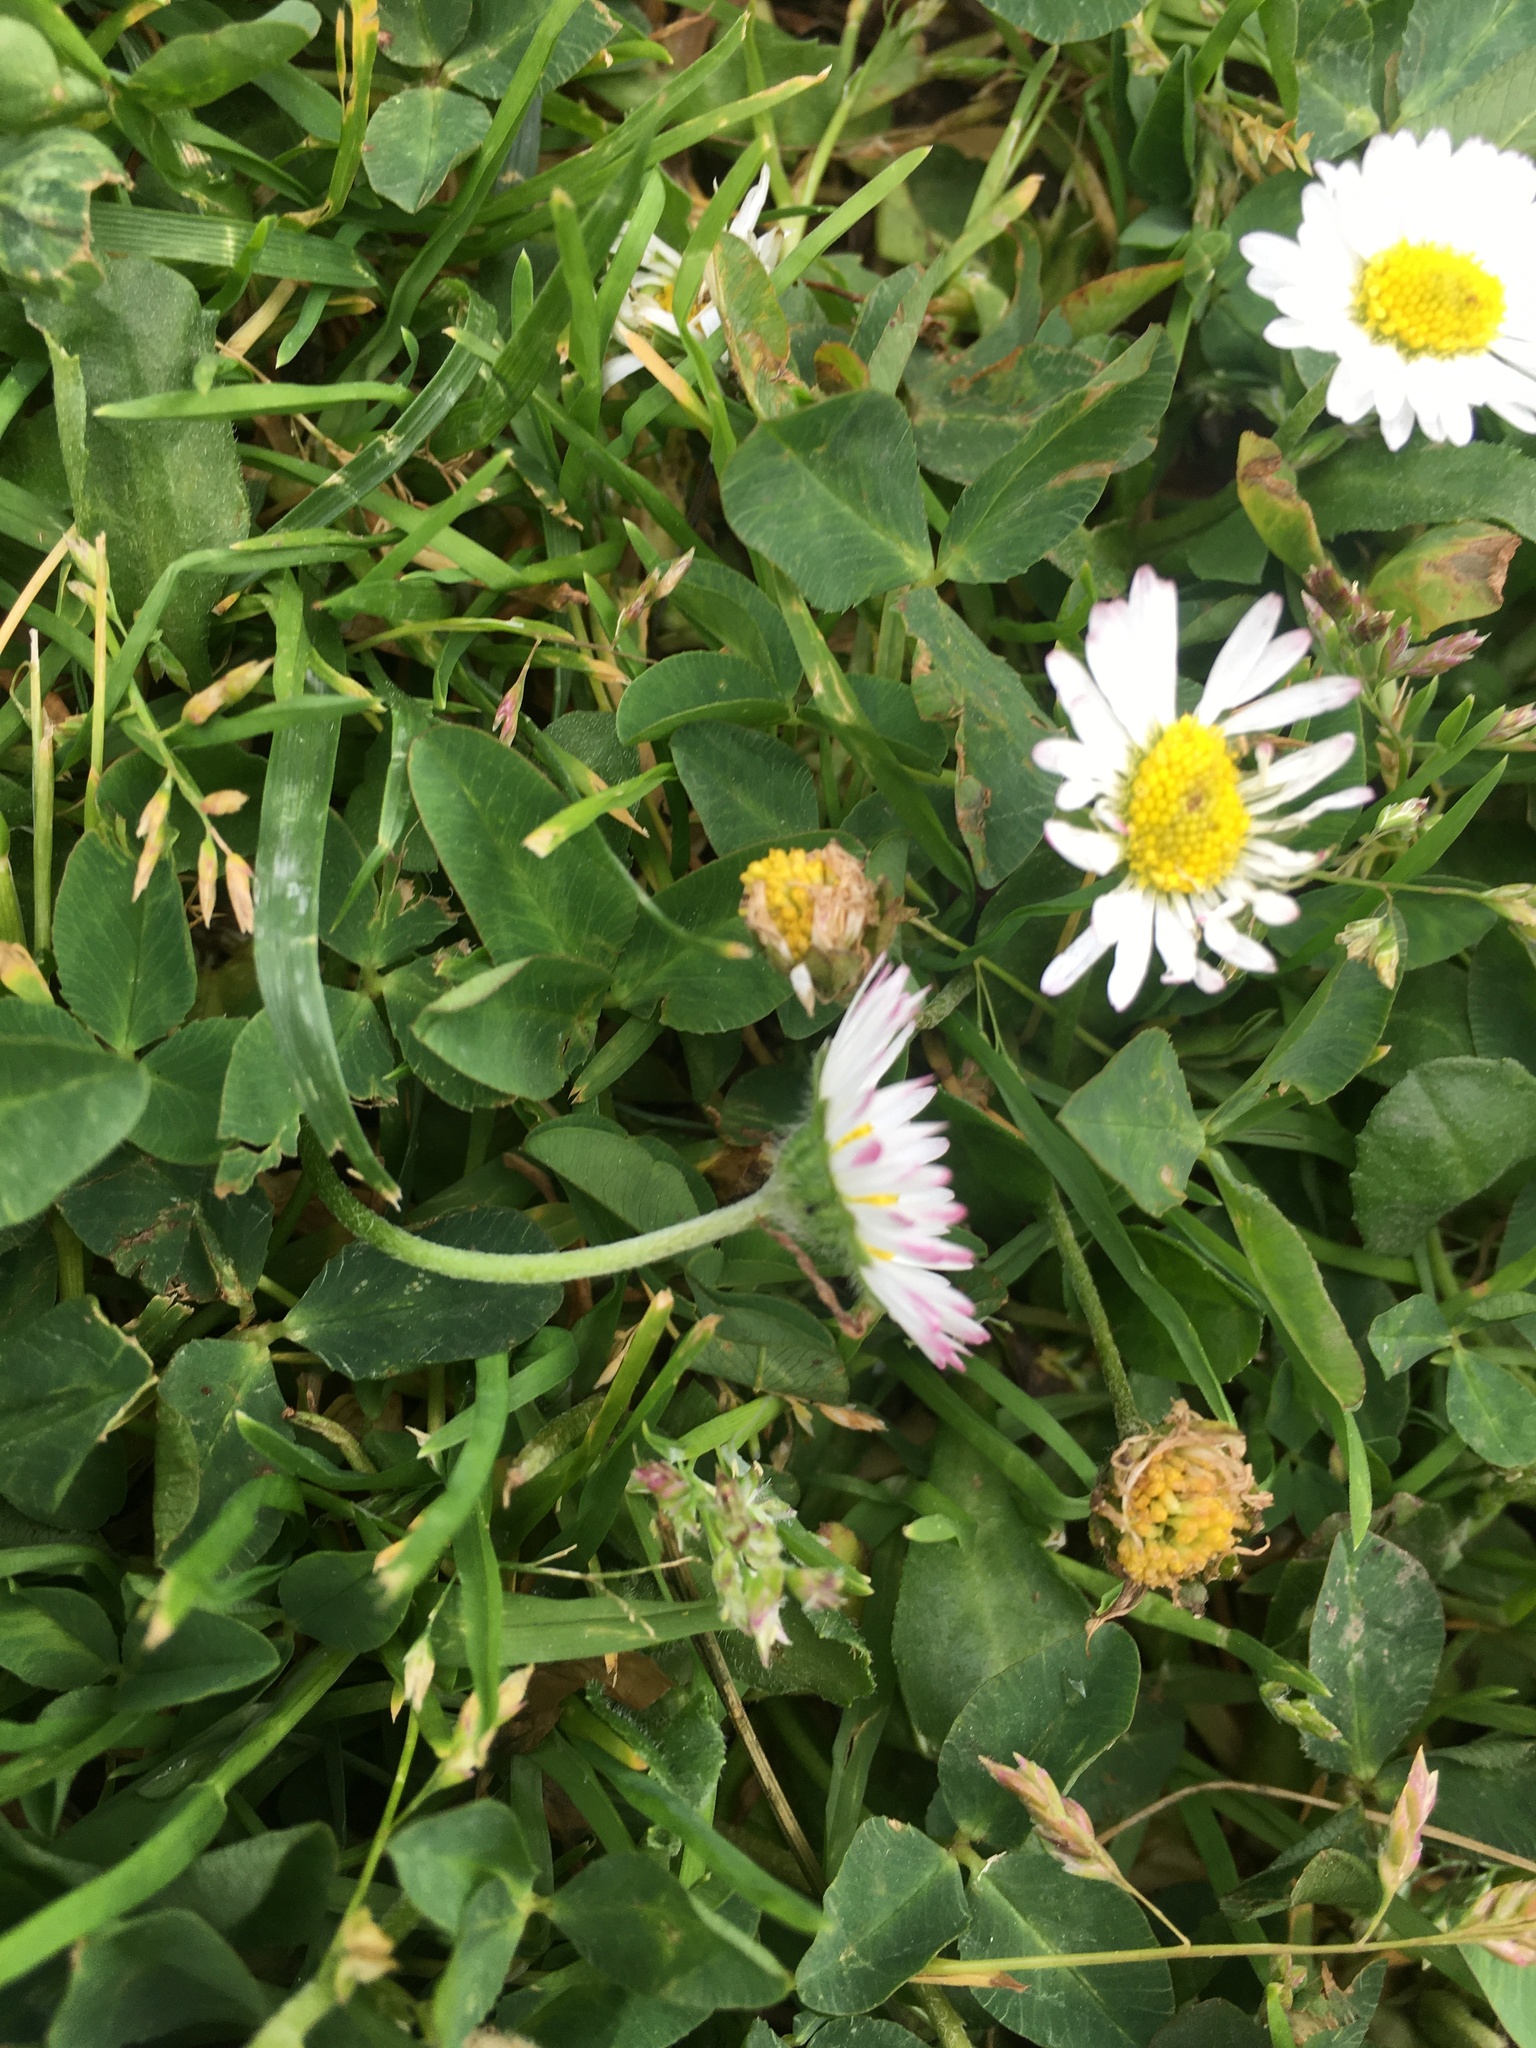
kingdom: Plantae
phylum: Tracheophyta
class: Magnoliopsida
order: Asterales
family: Asteraceae
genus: Bellis
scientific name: Bellis perennis
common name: Lawndaisy
